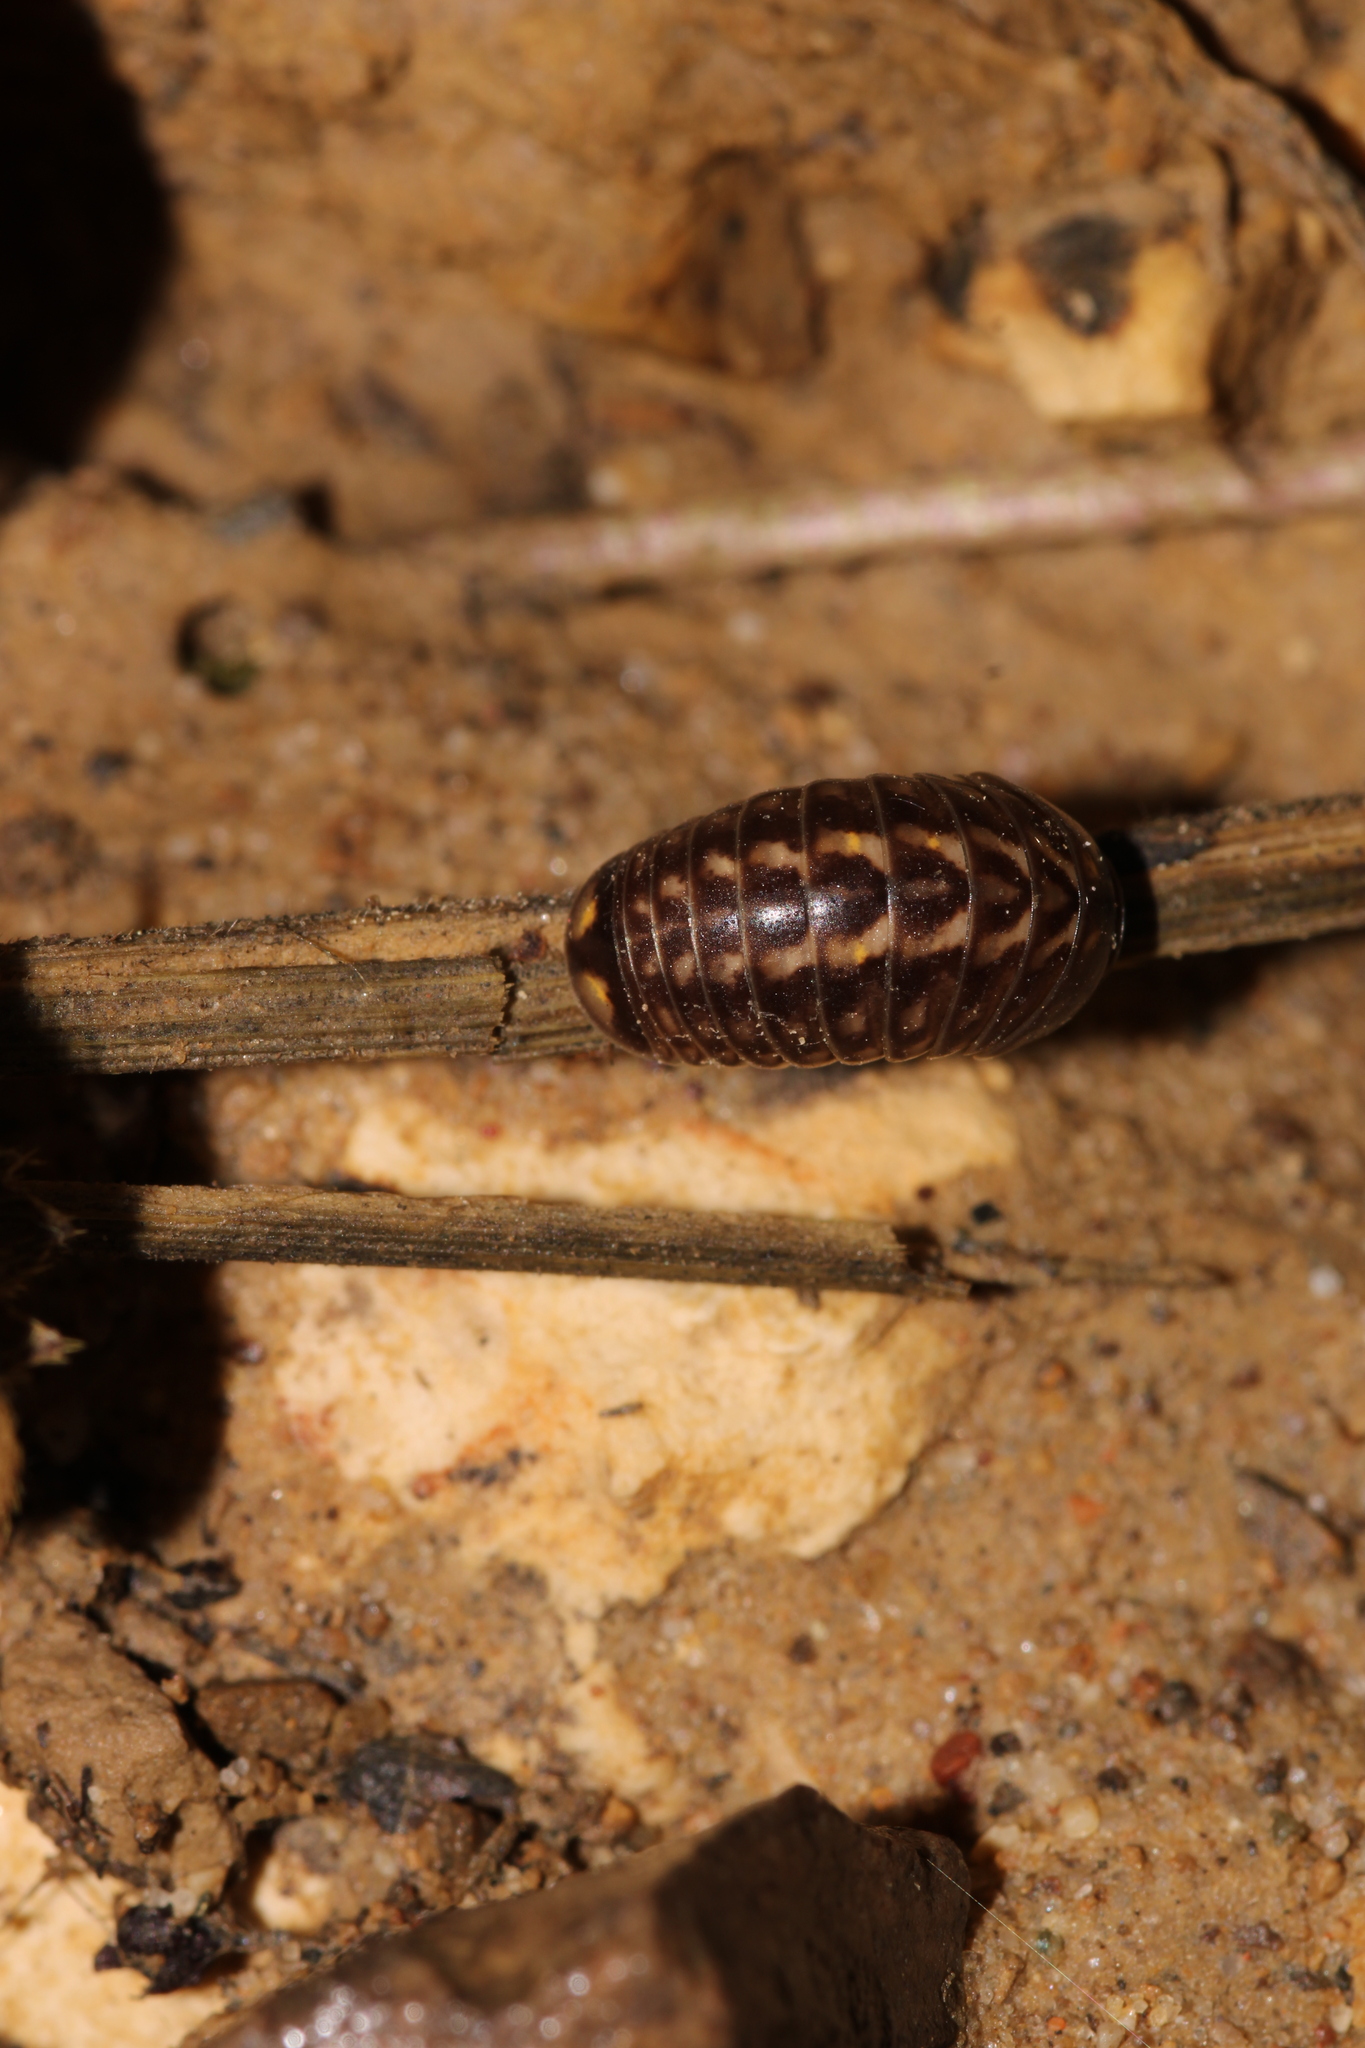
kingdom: Animalia
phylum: Arthropoda
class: Diplopoda
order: Glomerida
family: Glomeridae
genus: Glomeris
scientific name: Glomeris intermedia
